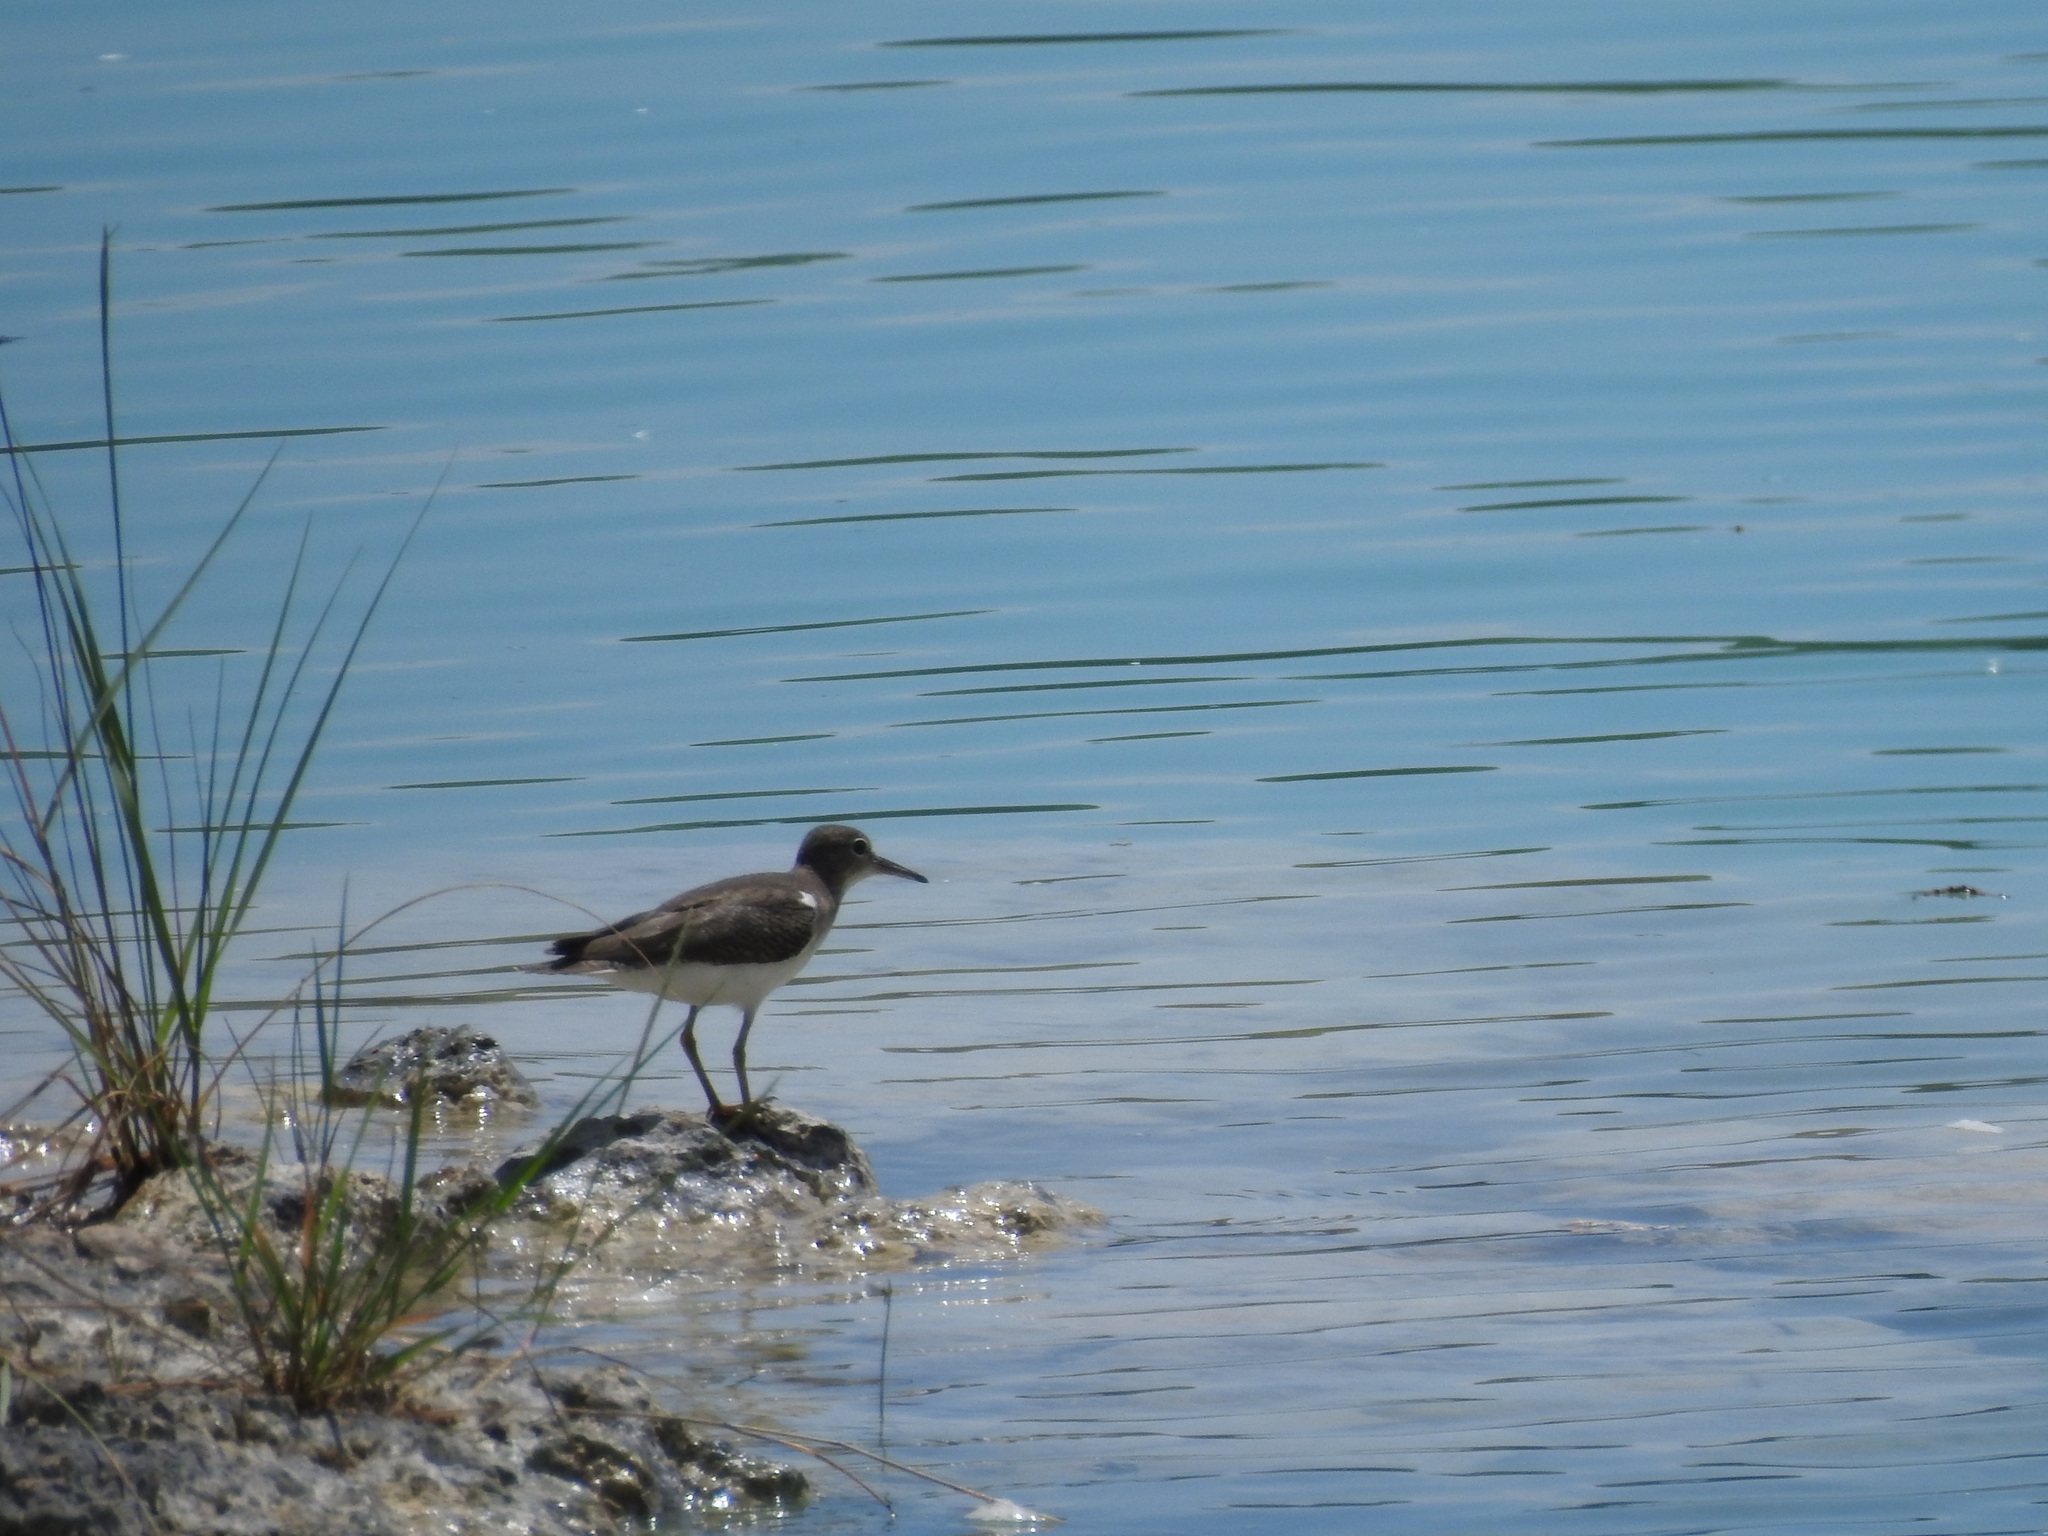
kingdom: Animalia
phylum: Chordata
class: Aves
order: Charadriiformes
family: Scolopacidae
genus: Actitis
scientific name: Actitis macularius
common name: Spotted sandpiper
